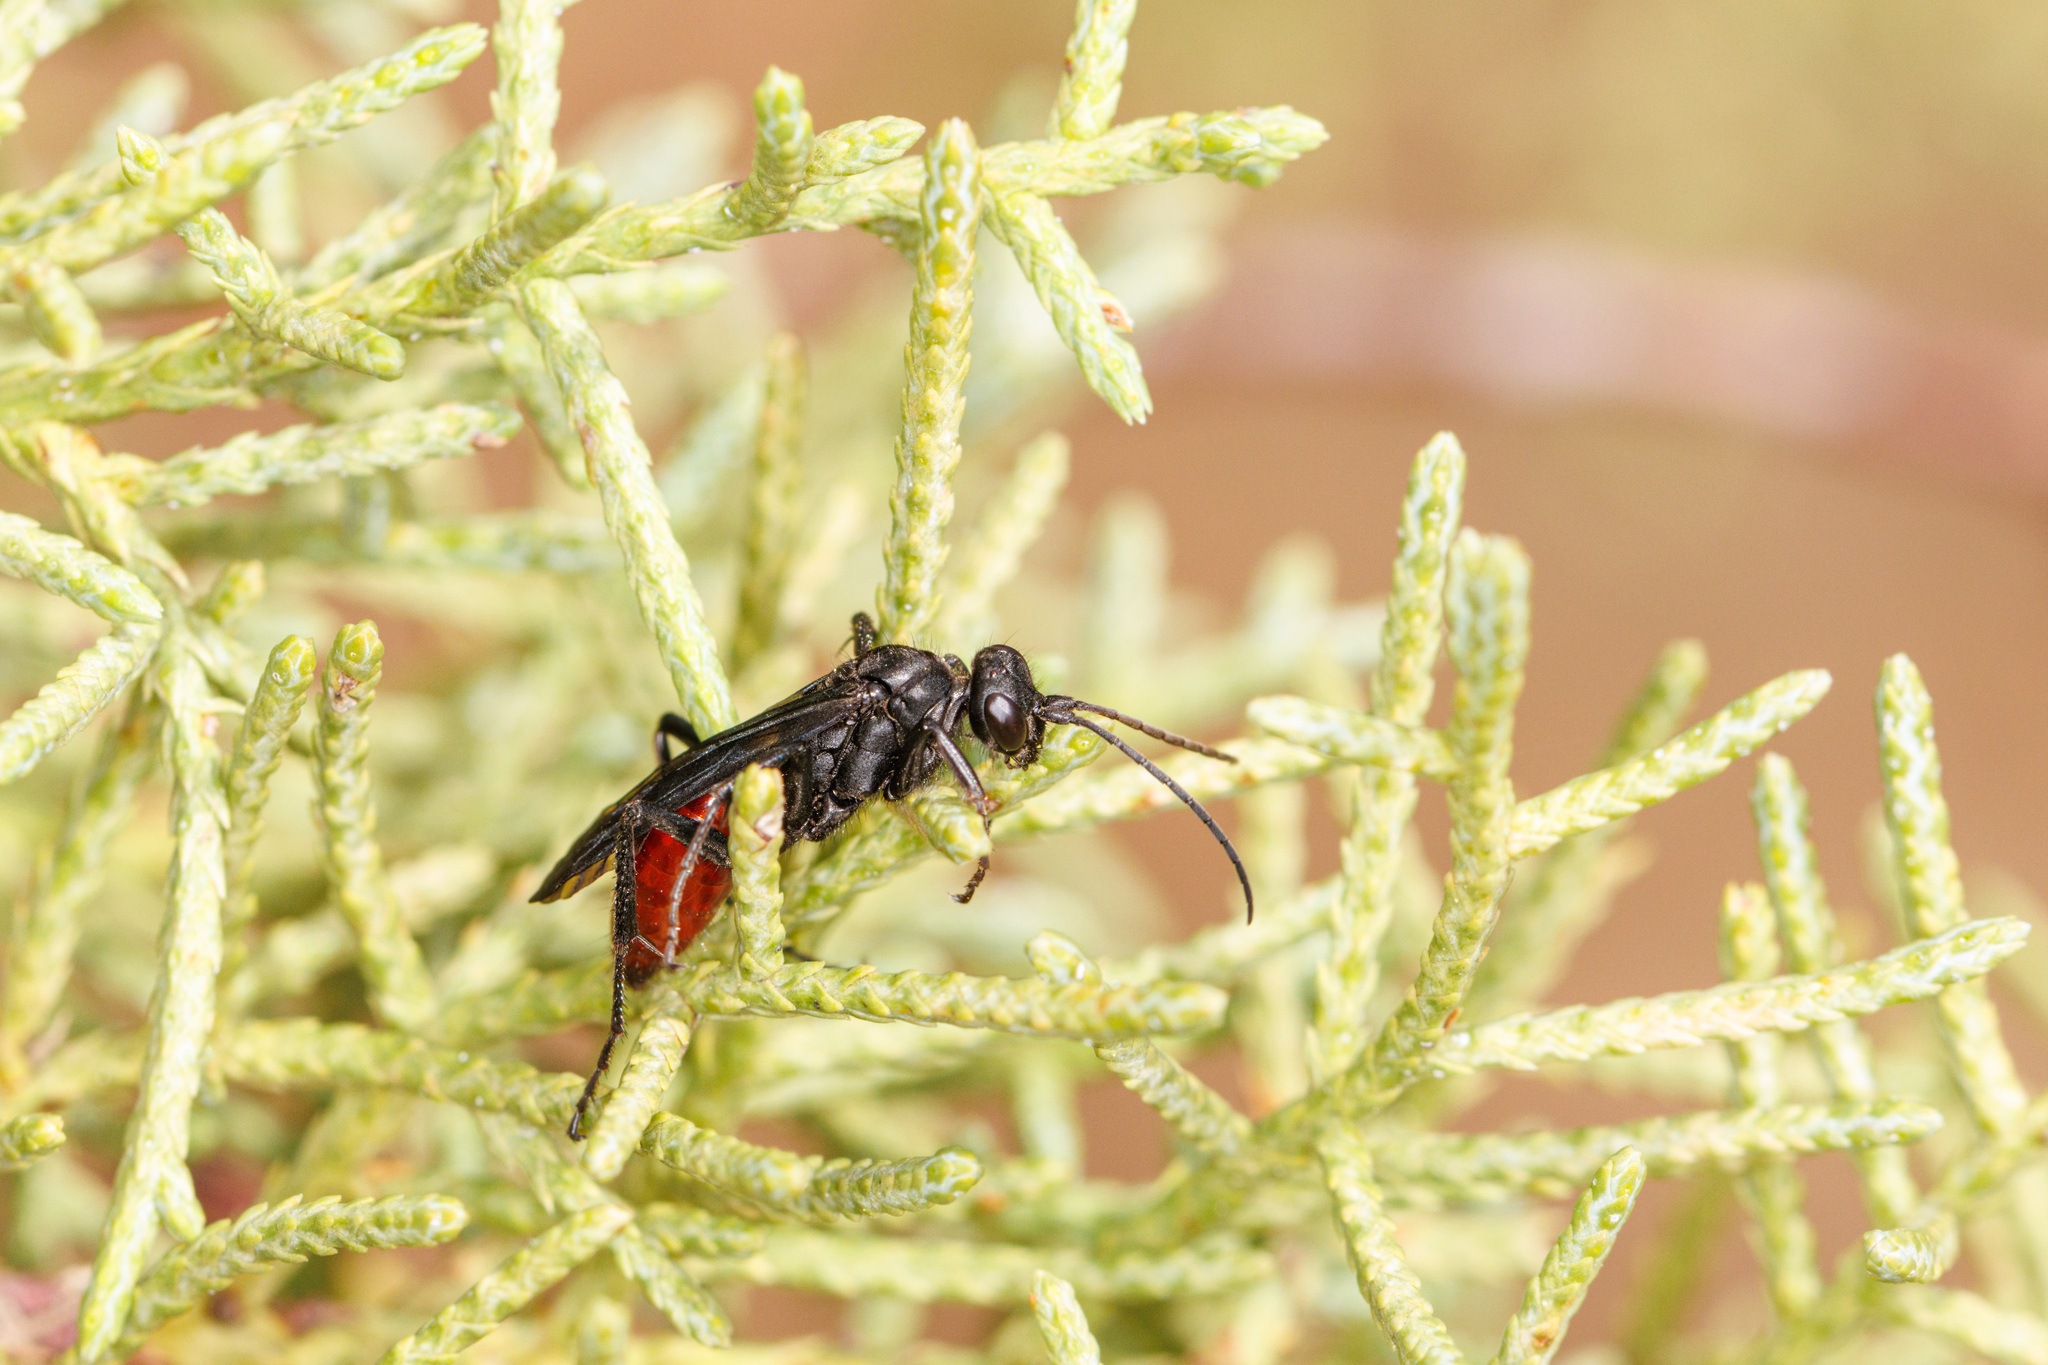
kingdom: Animalia
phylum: Arthropoda
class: Insecta
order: Hymenoptera
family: Pompilidae
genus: Priocnemis
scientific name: Priocnemis oregona
